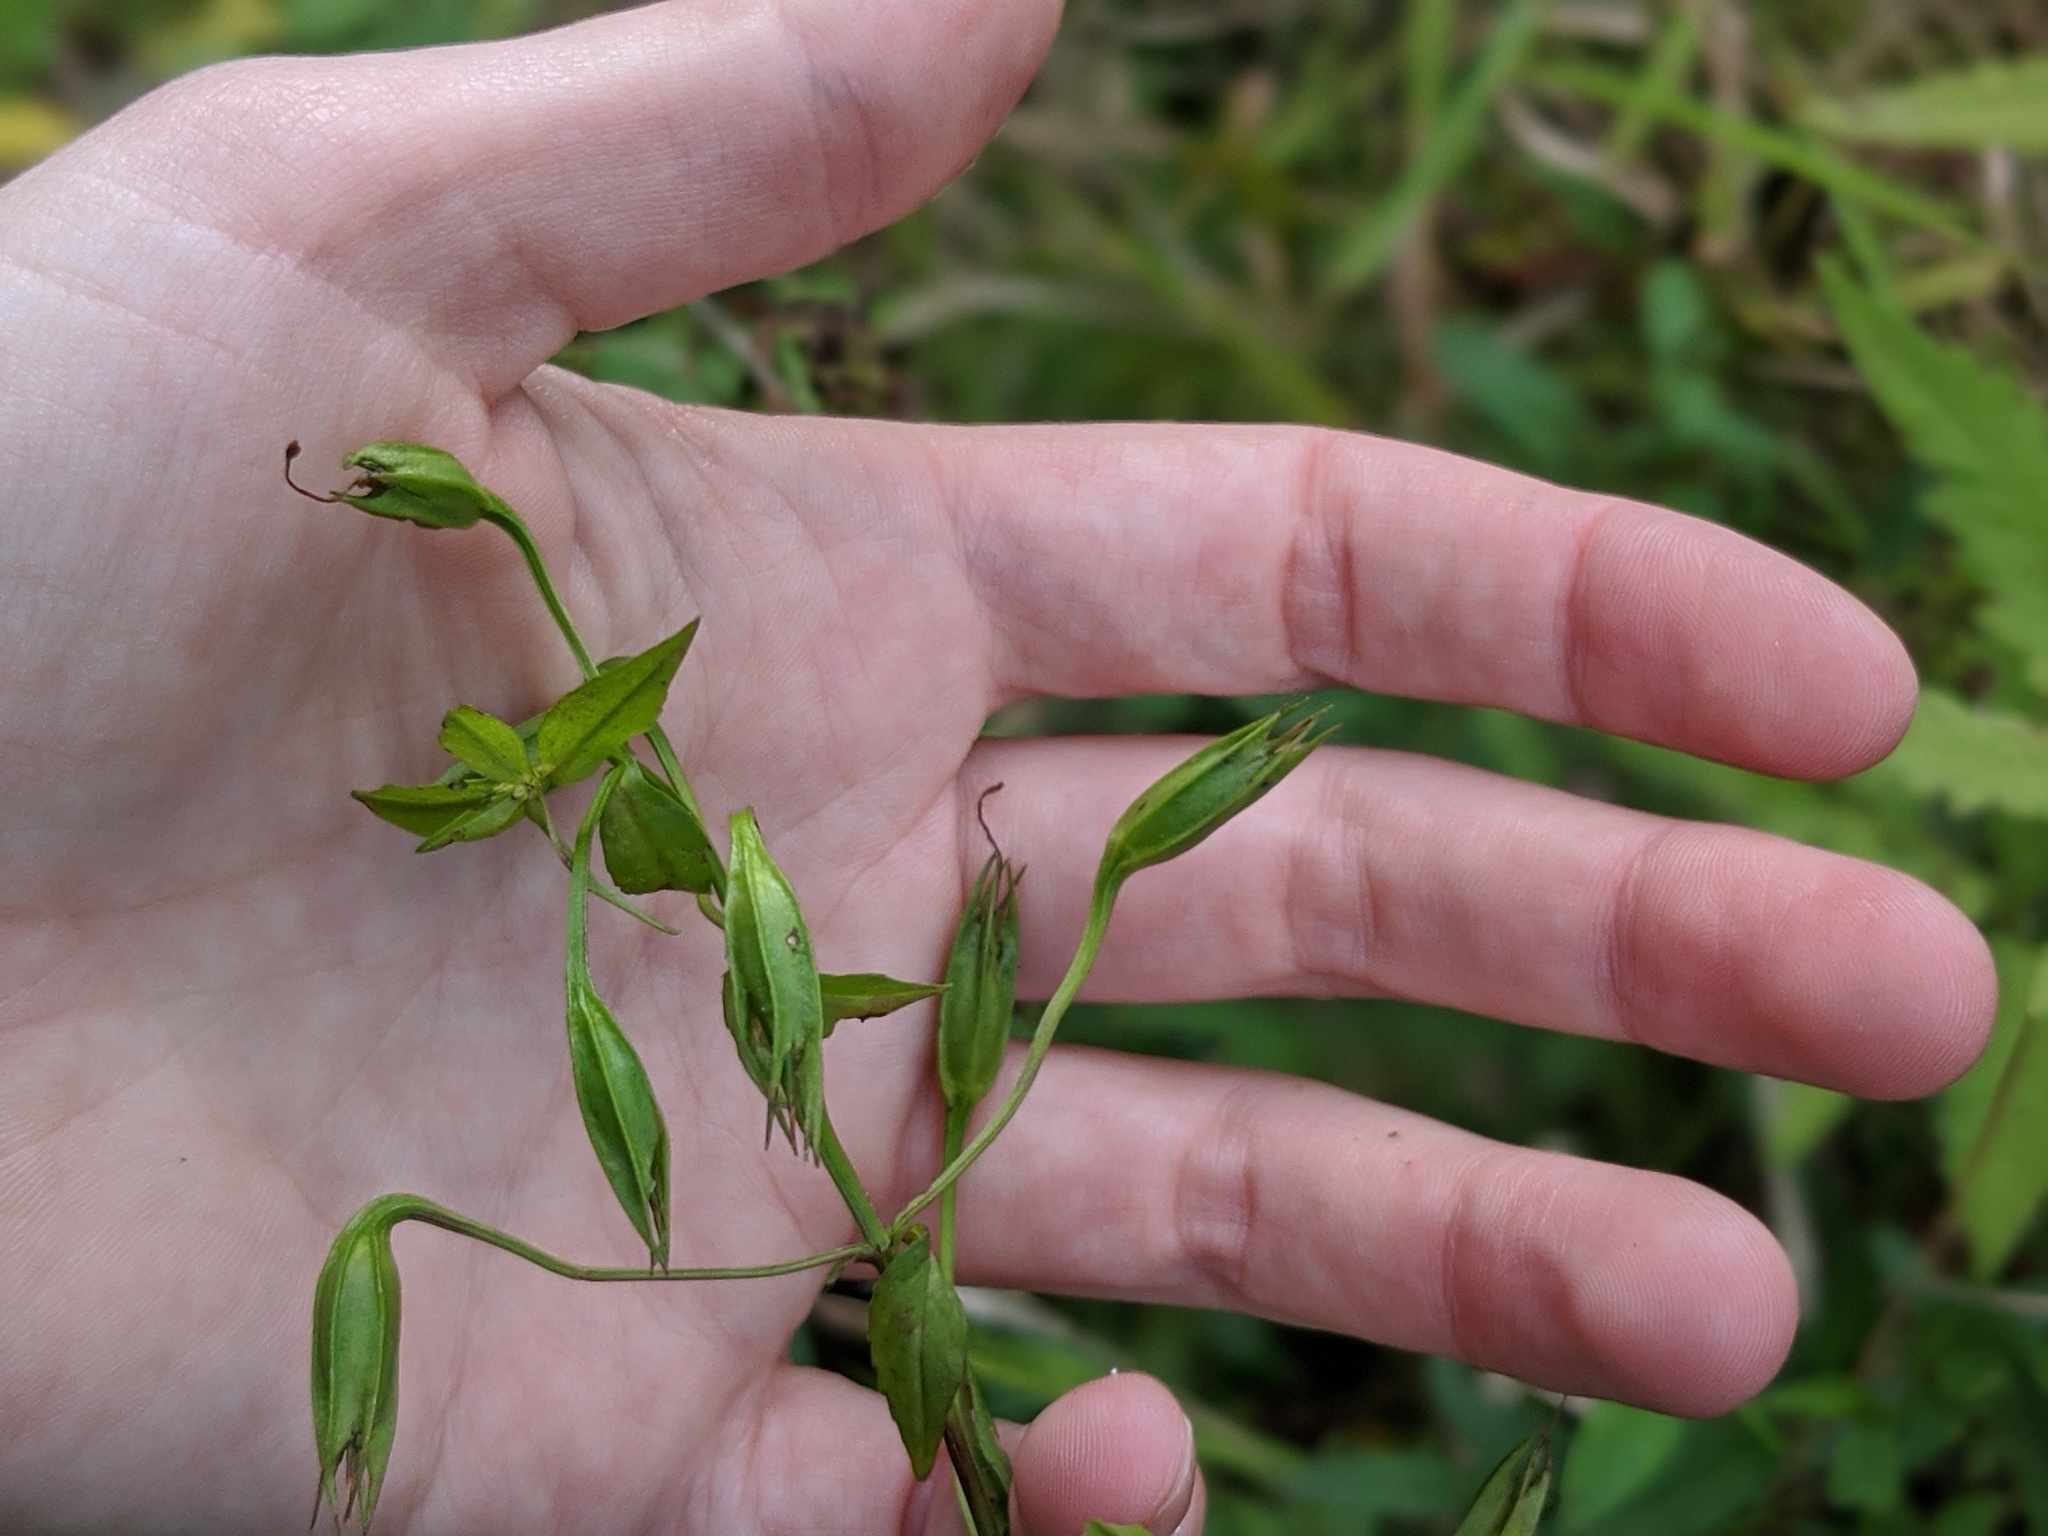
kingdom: Plantae
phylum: Tracheophyta
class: Magnoliopsida
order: Lamiales
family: Phrymaceae
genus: Mimulus
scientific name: Mimulus ringens
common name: Allegheny monkeyflower
